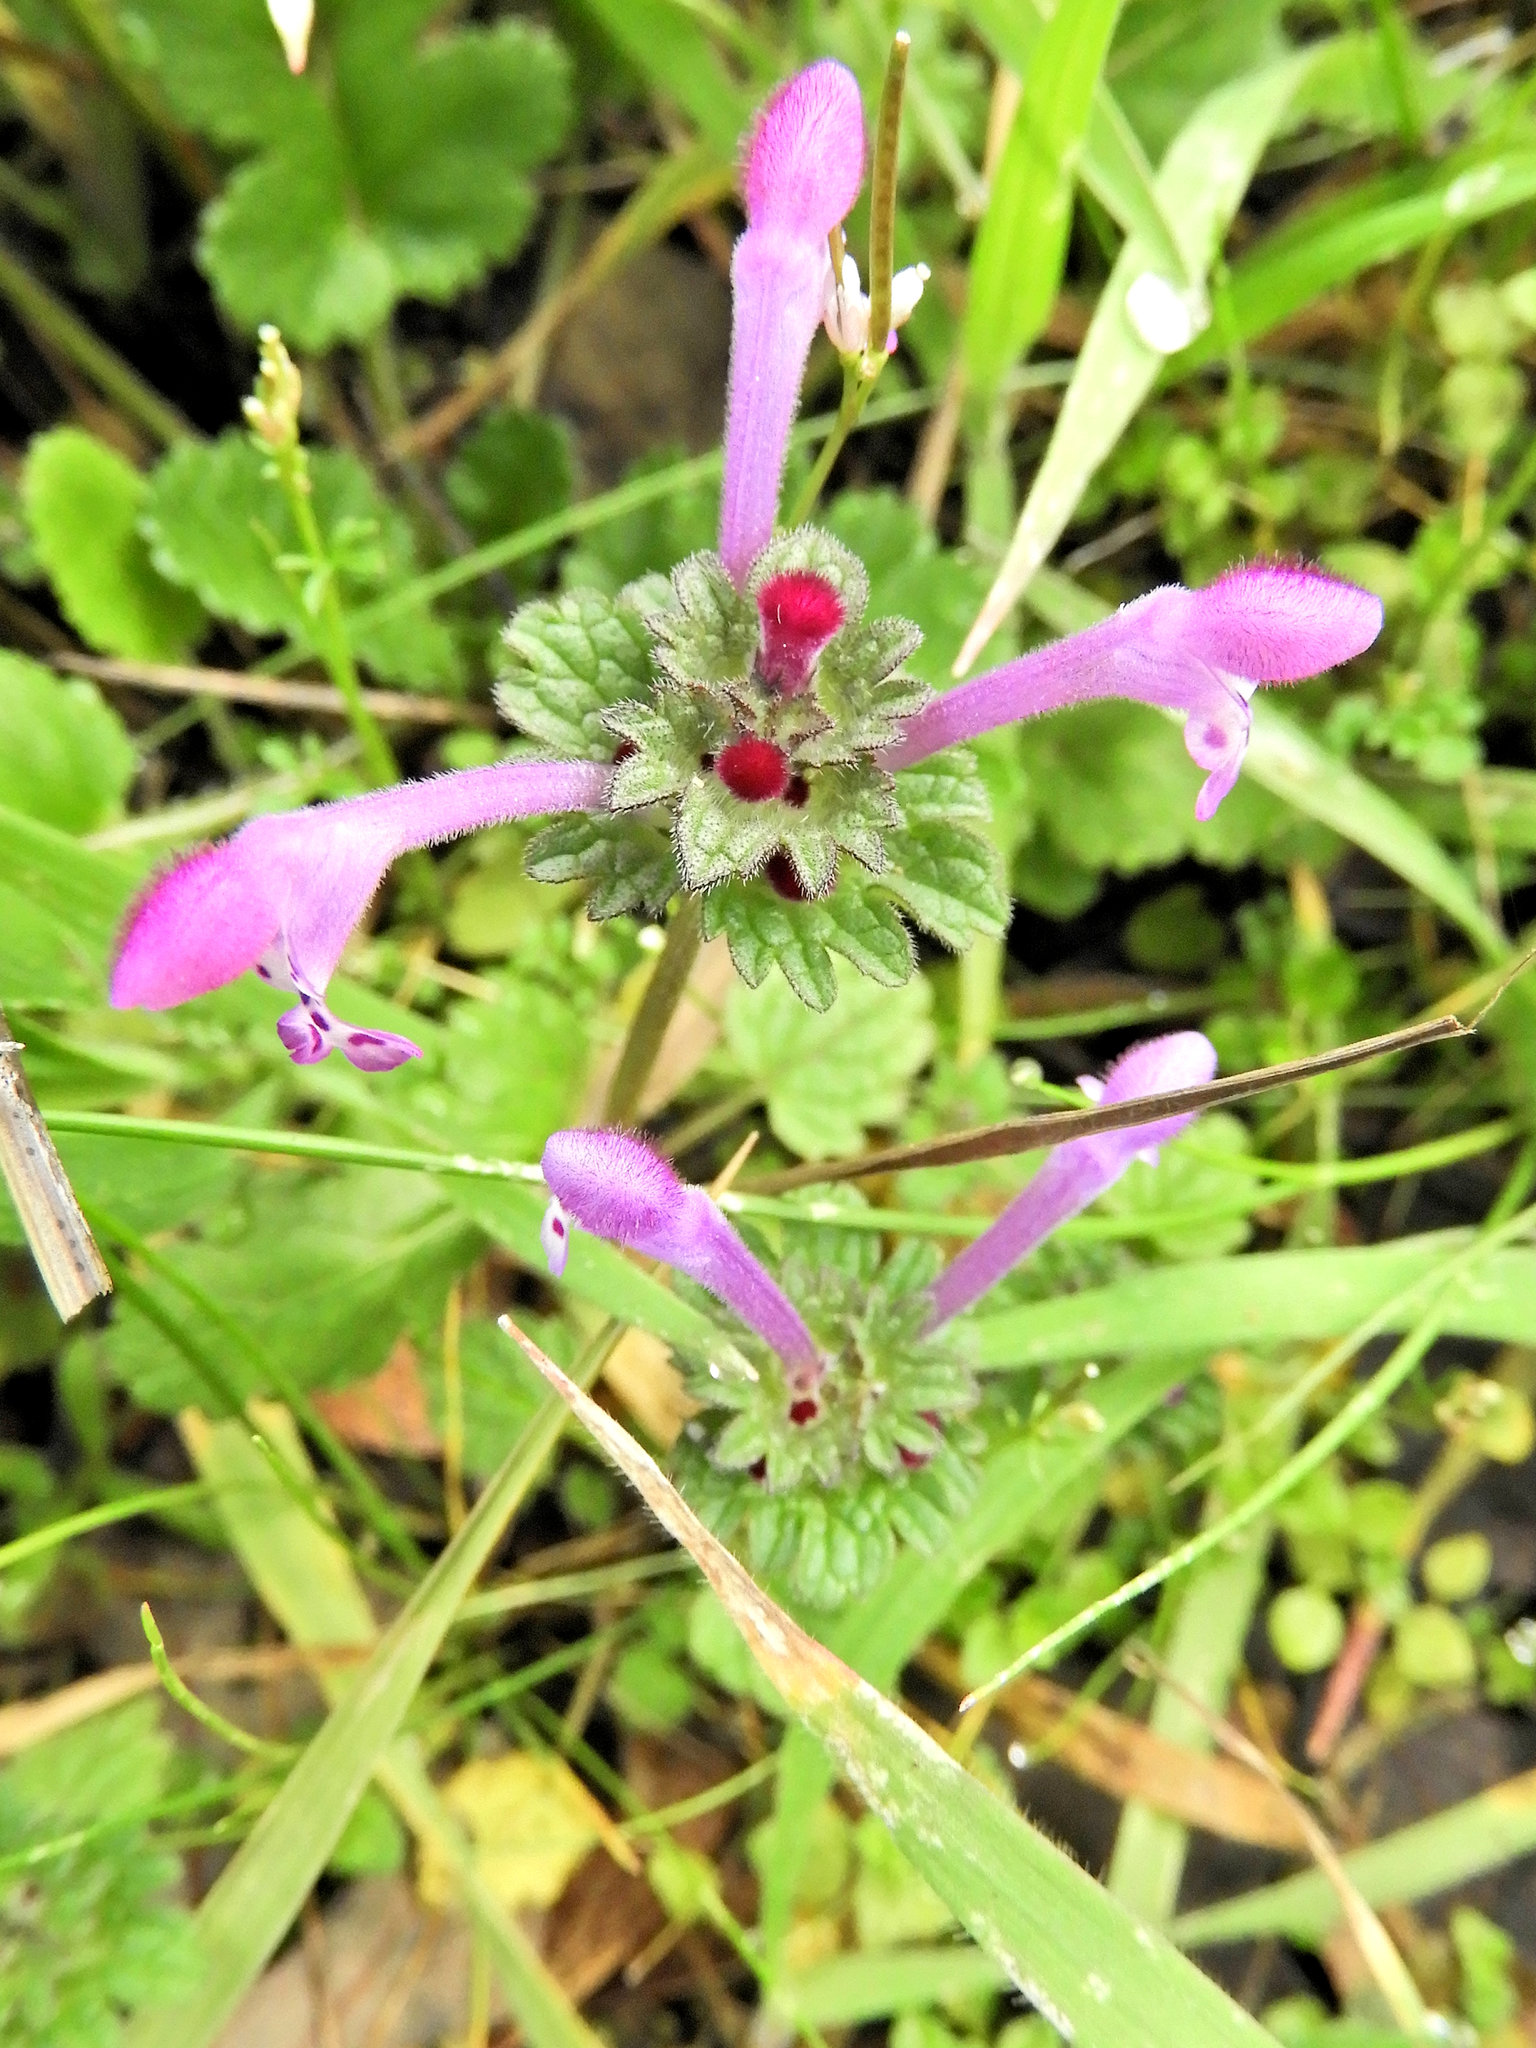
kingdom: Plantae
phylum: Tracheophyta
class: Magnoliopsida
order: Lamiales
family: Lamiaceae
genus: Lamium
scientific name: Lamium amplexicaule
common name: Henbit dead-nettle
